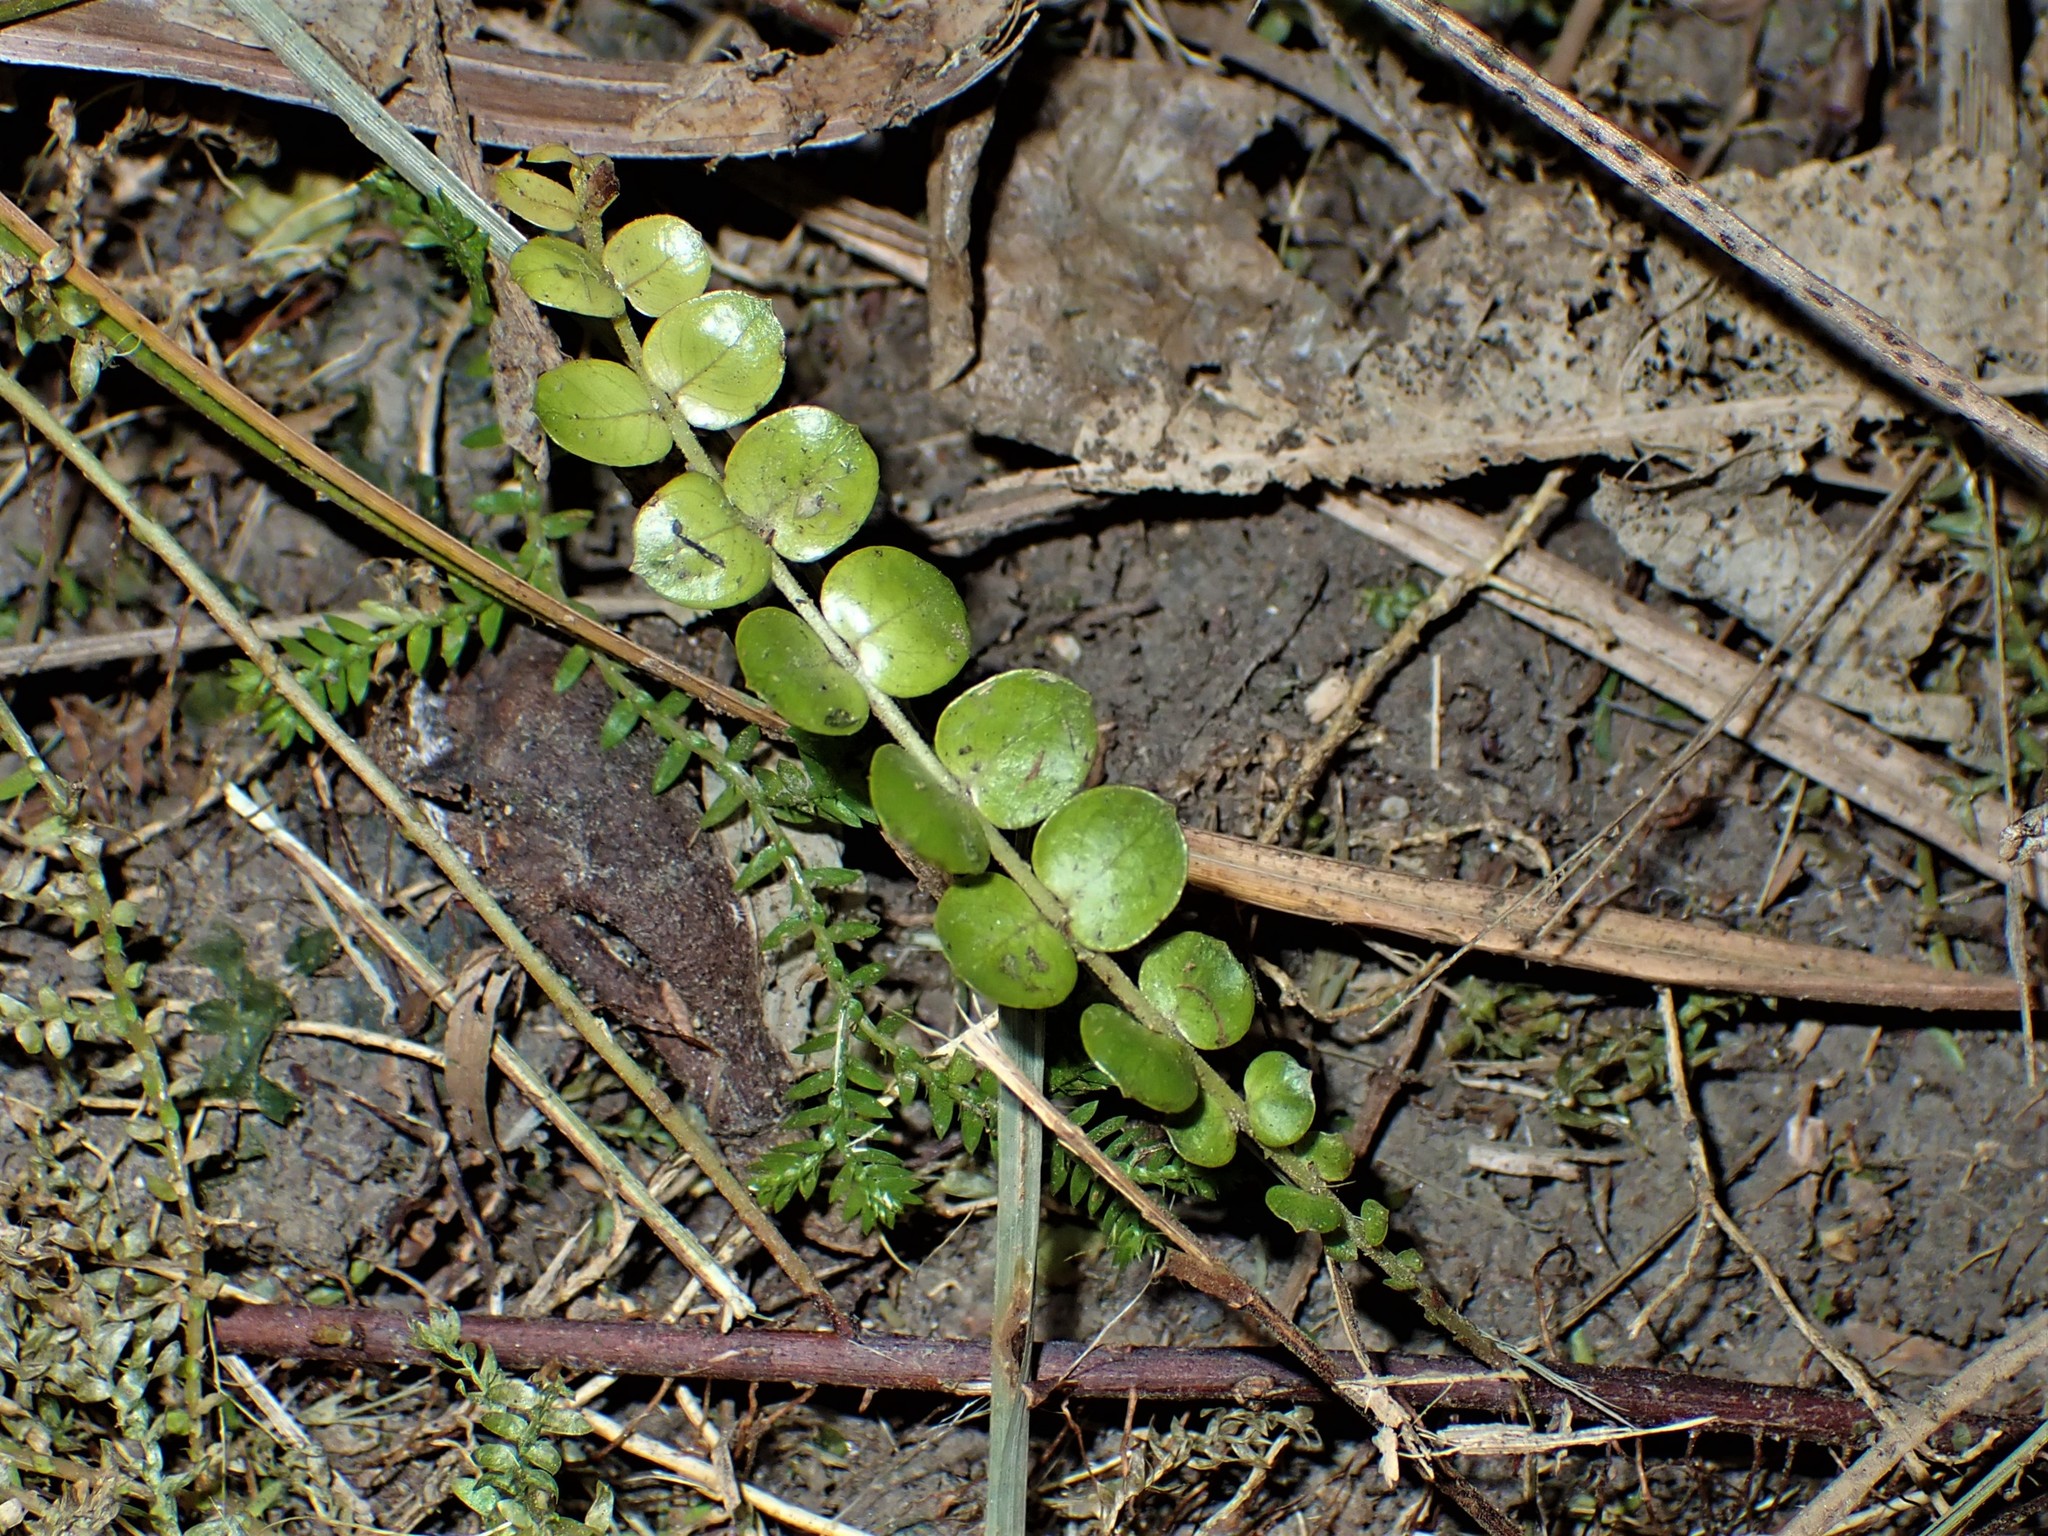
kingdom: Plantae
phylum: Tracheophyta
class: Magnoliopsida
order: Myrtales
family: Myrtaceae
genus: Metrosideros
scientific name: Metrosideros perforata
